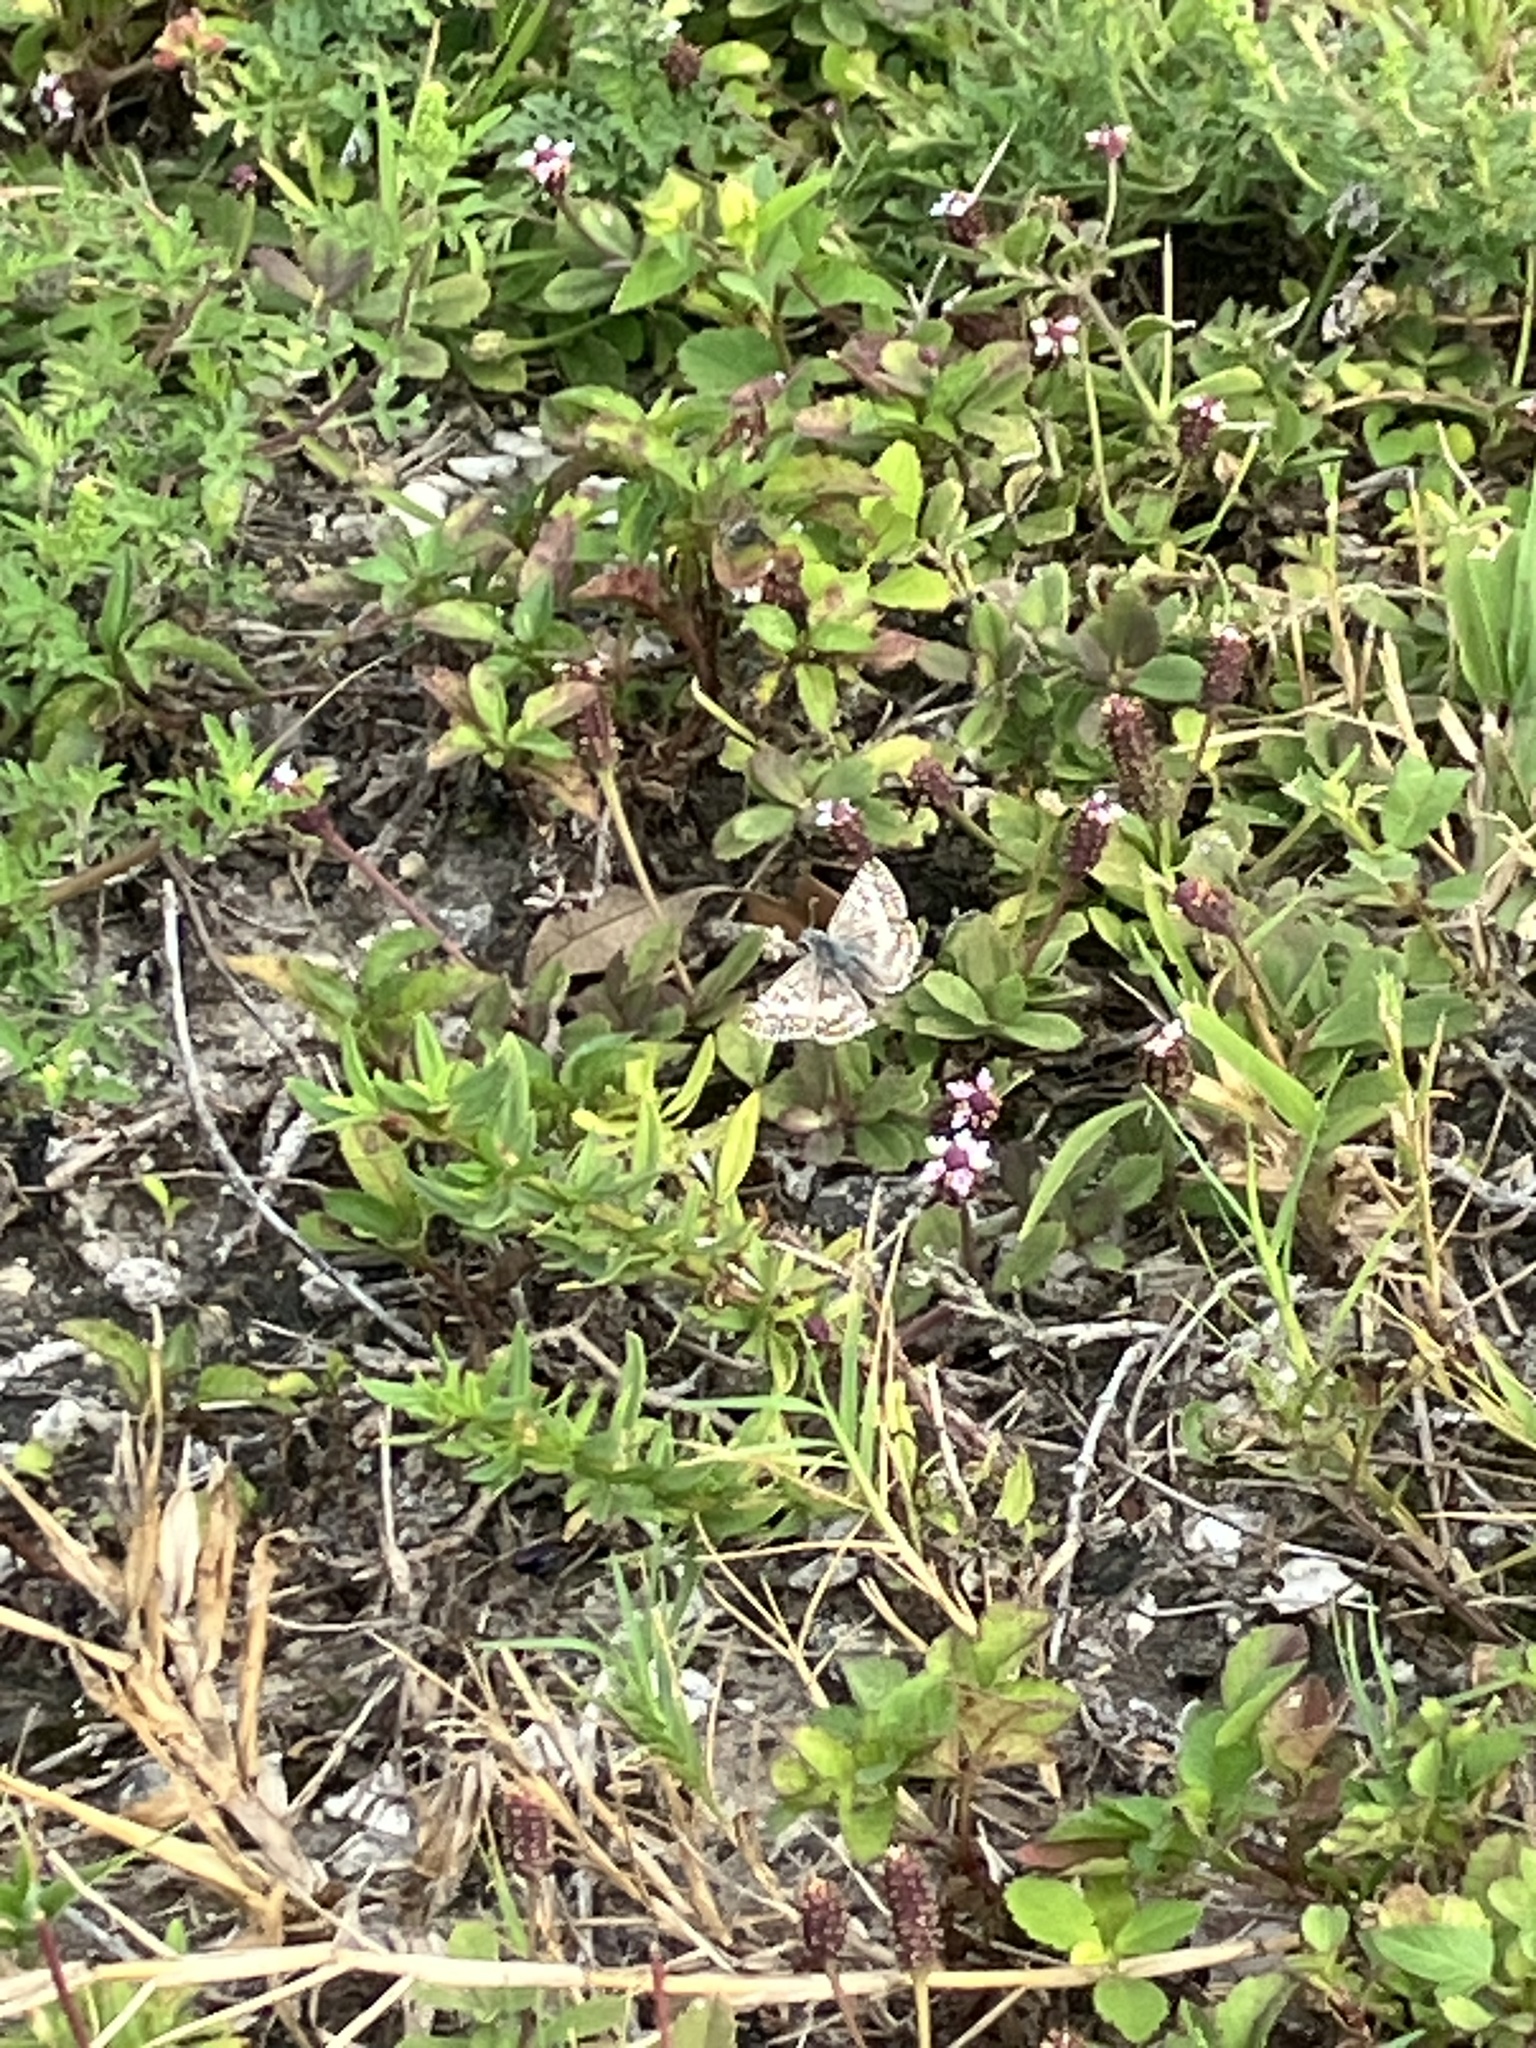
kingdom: Animalia
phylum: Arthropoda
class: Insecta
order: Lepidoptera
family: Hesperiidae
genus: Burnsius
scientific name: Burnsius albezens
